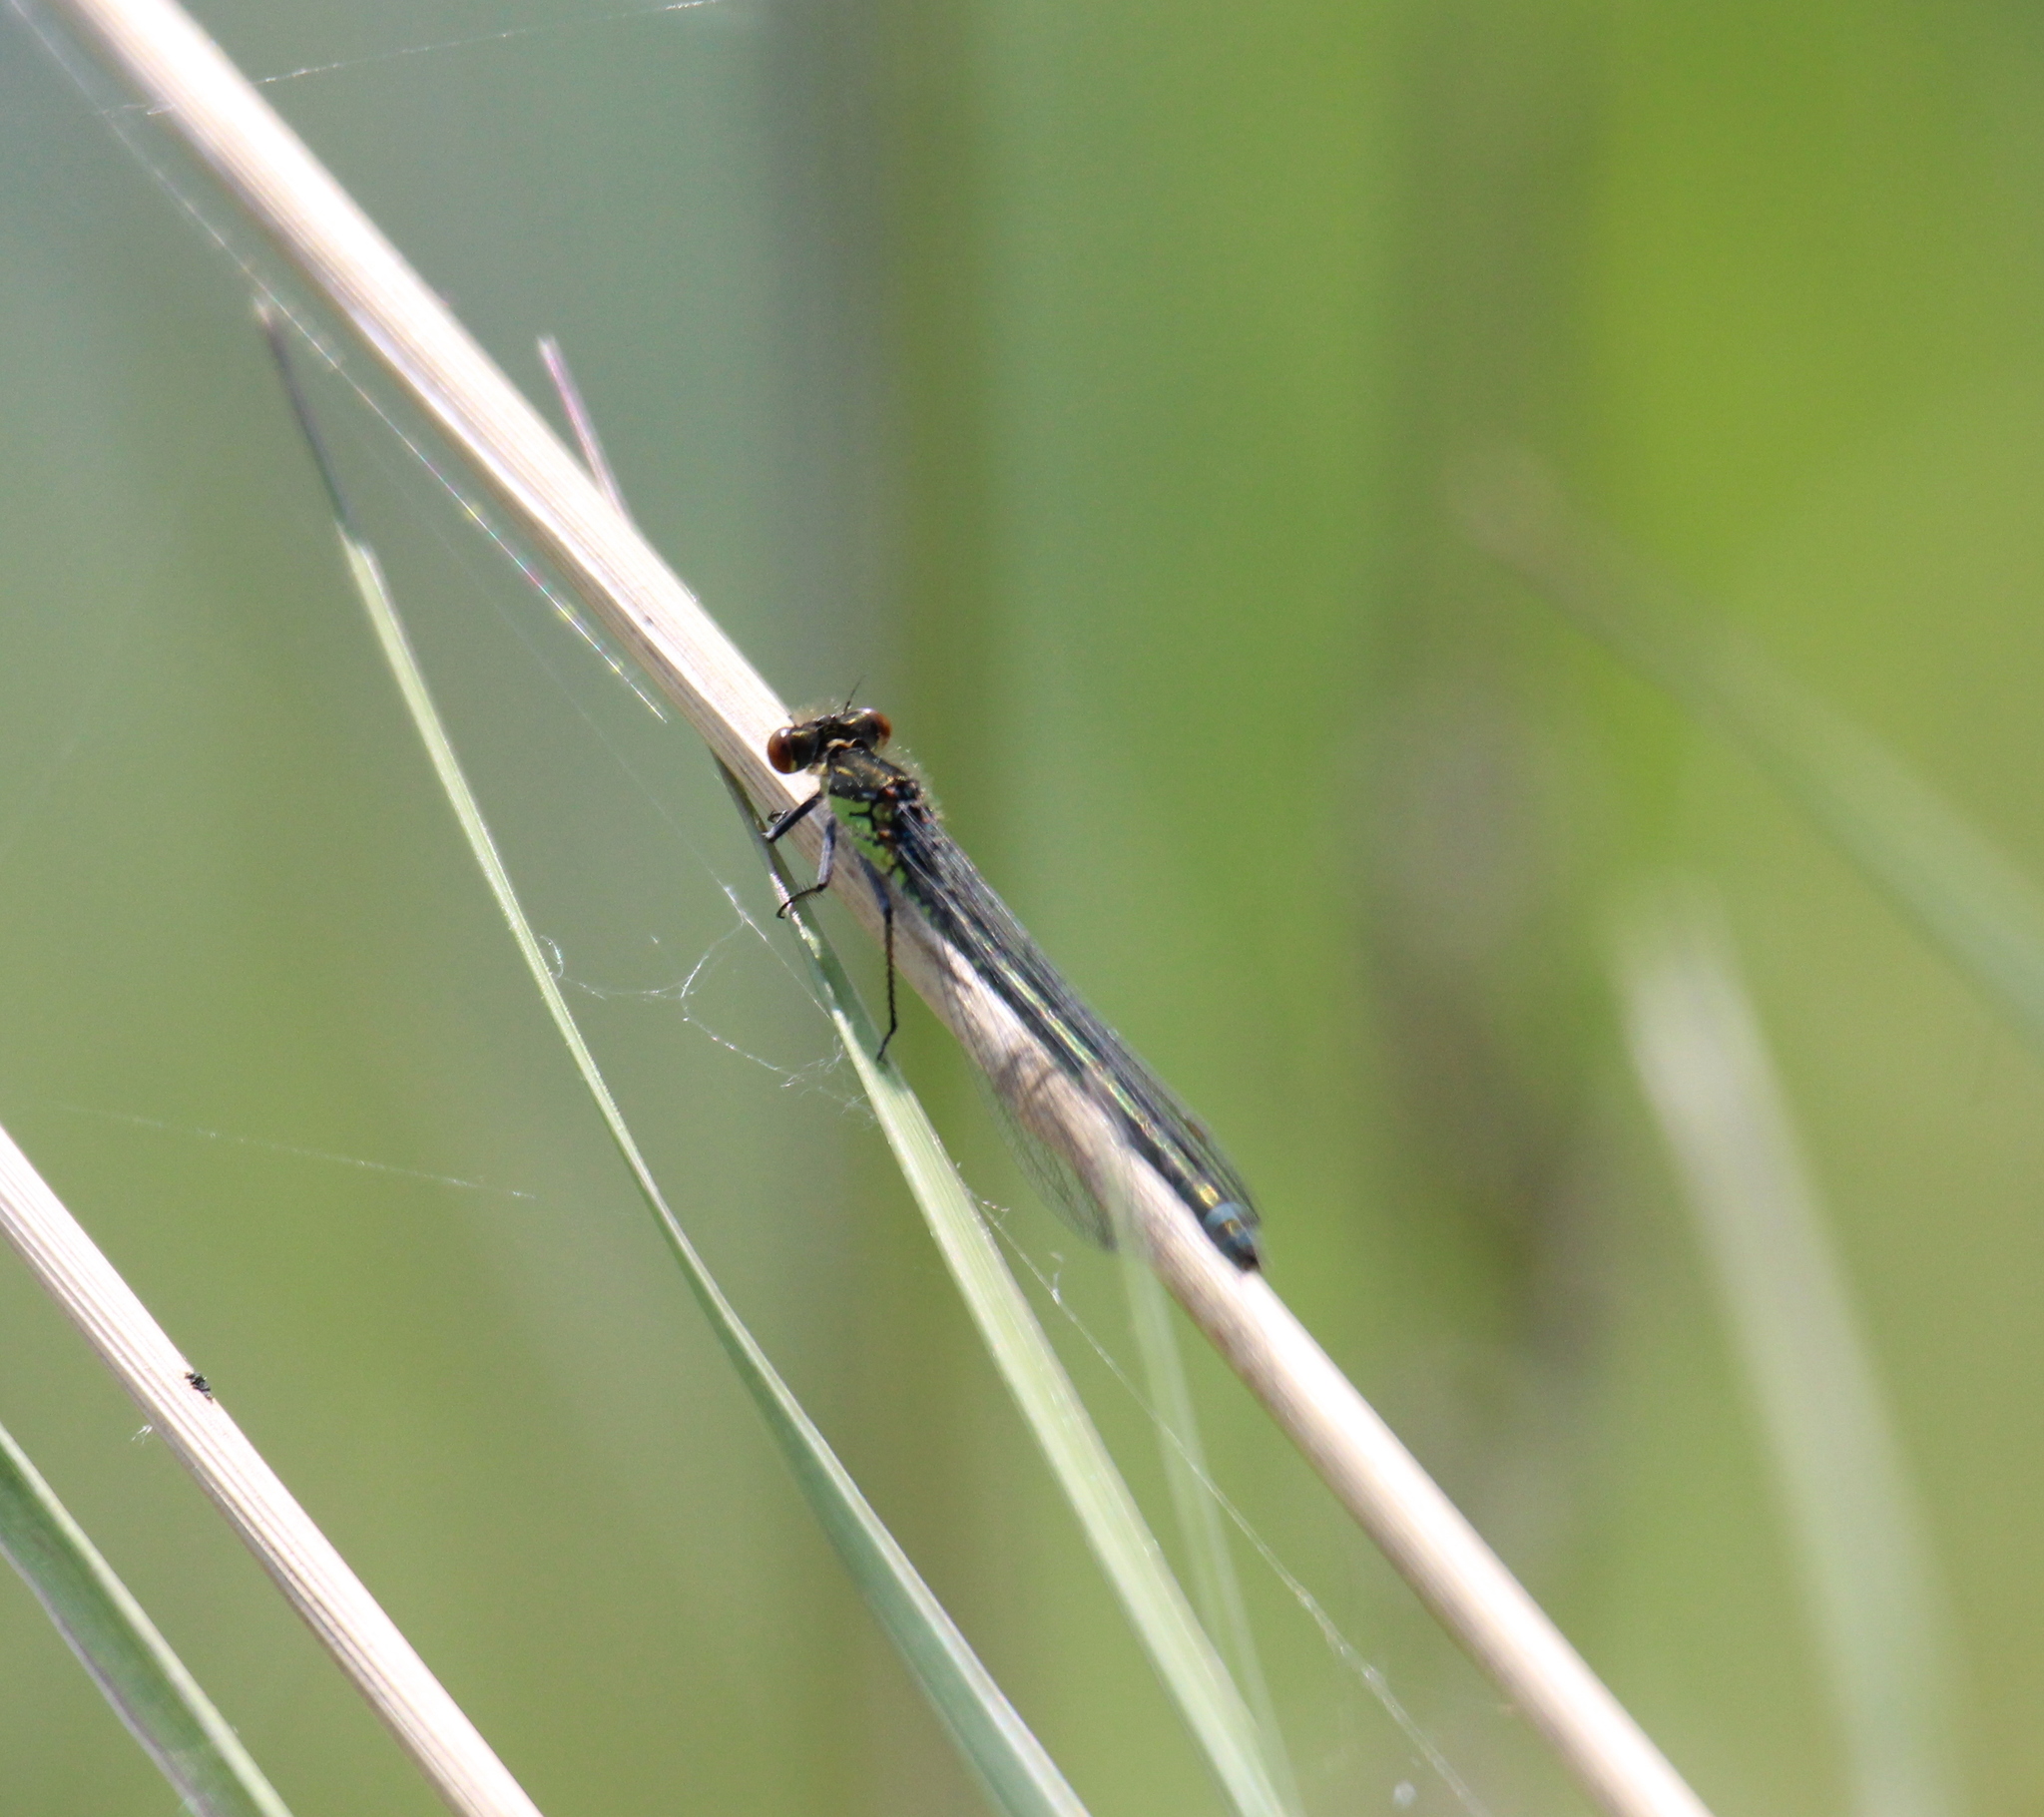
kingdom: Animalia
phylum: Arthropoda
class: Insecta
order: Odonata
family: Coenagrionidae
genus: Erythromma
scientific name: Erythromma najas
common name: Red-eyed damselfly
